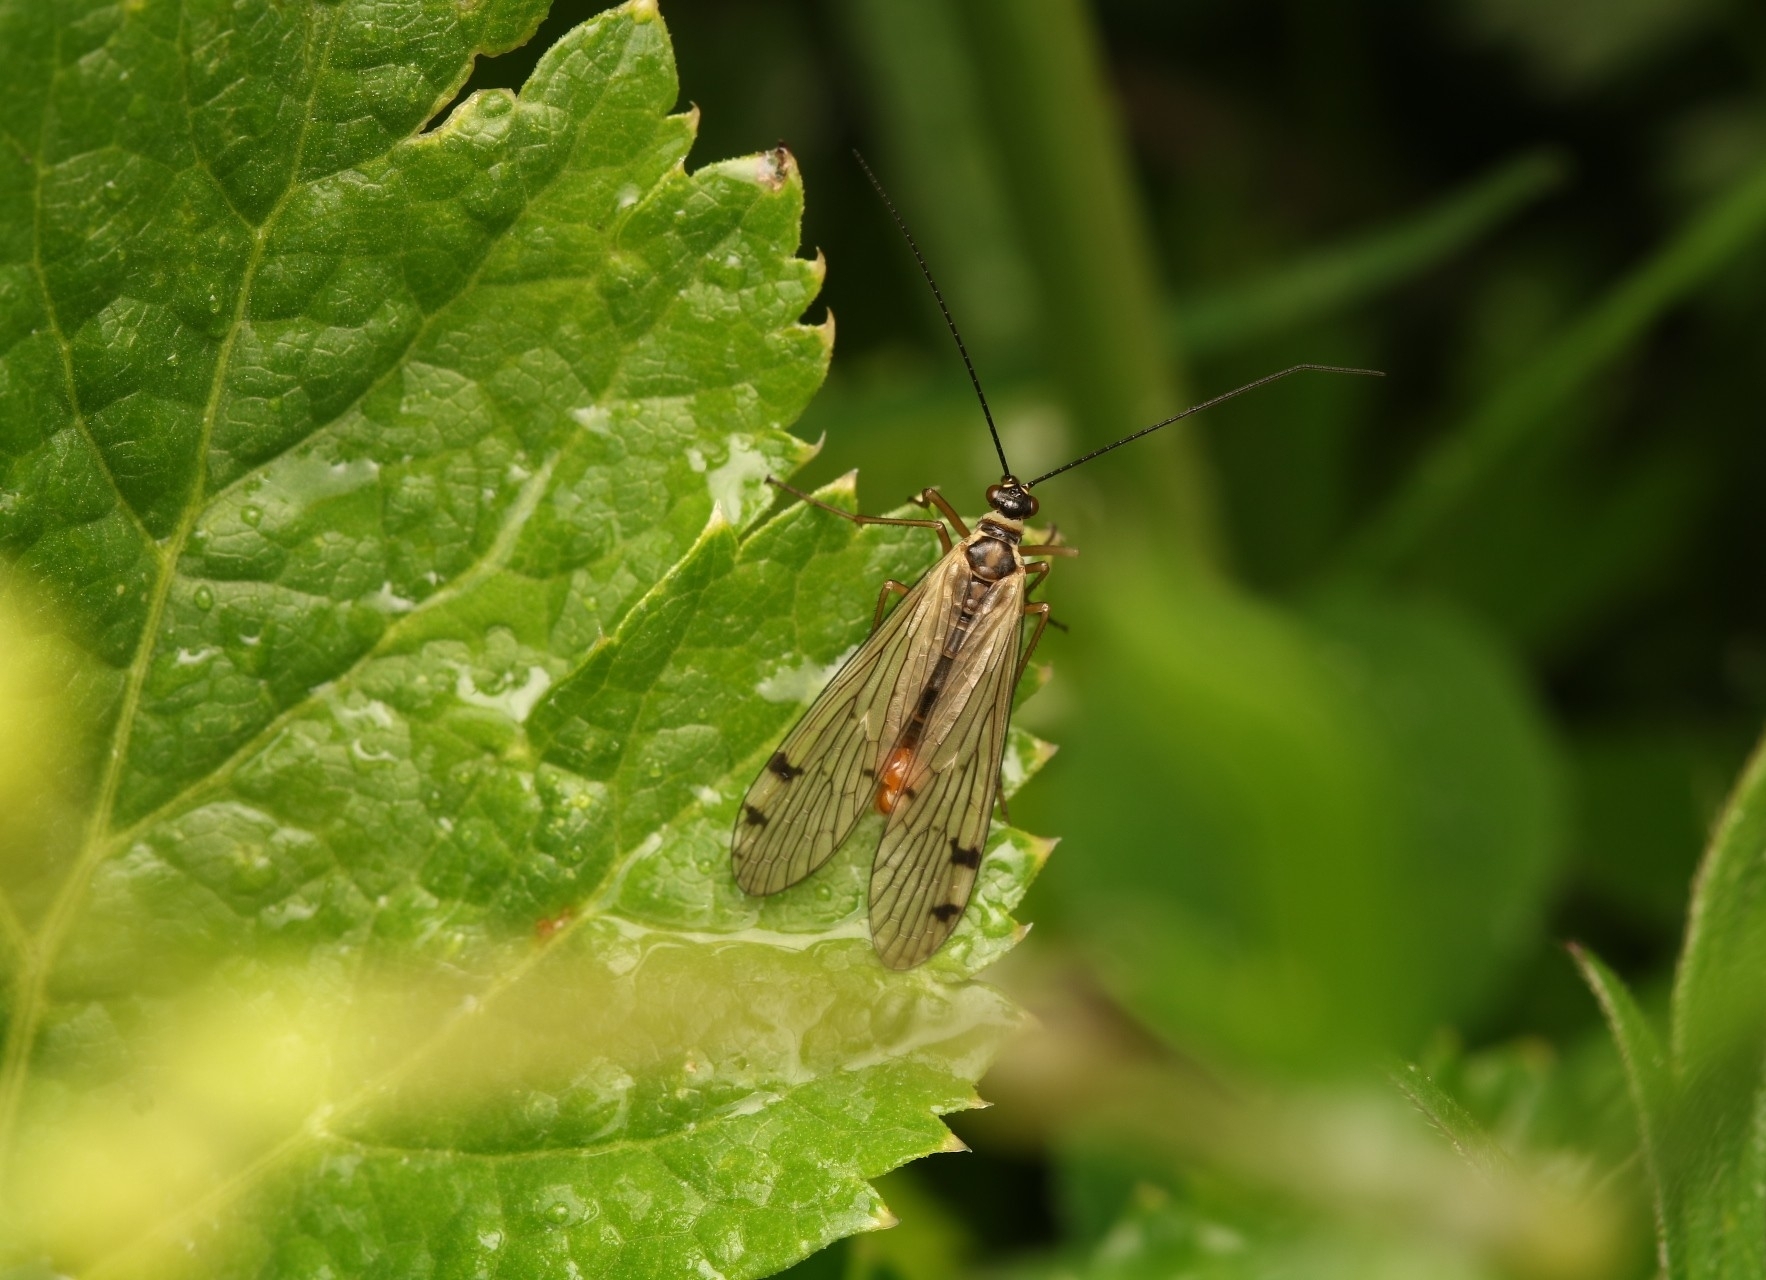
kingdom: Animalia
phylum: Arthropoda
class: Insecta
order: Mecoptera
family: Panorpidae
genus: Panorpa
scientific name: Panorpa alpina
